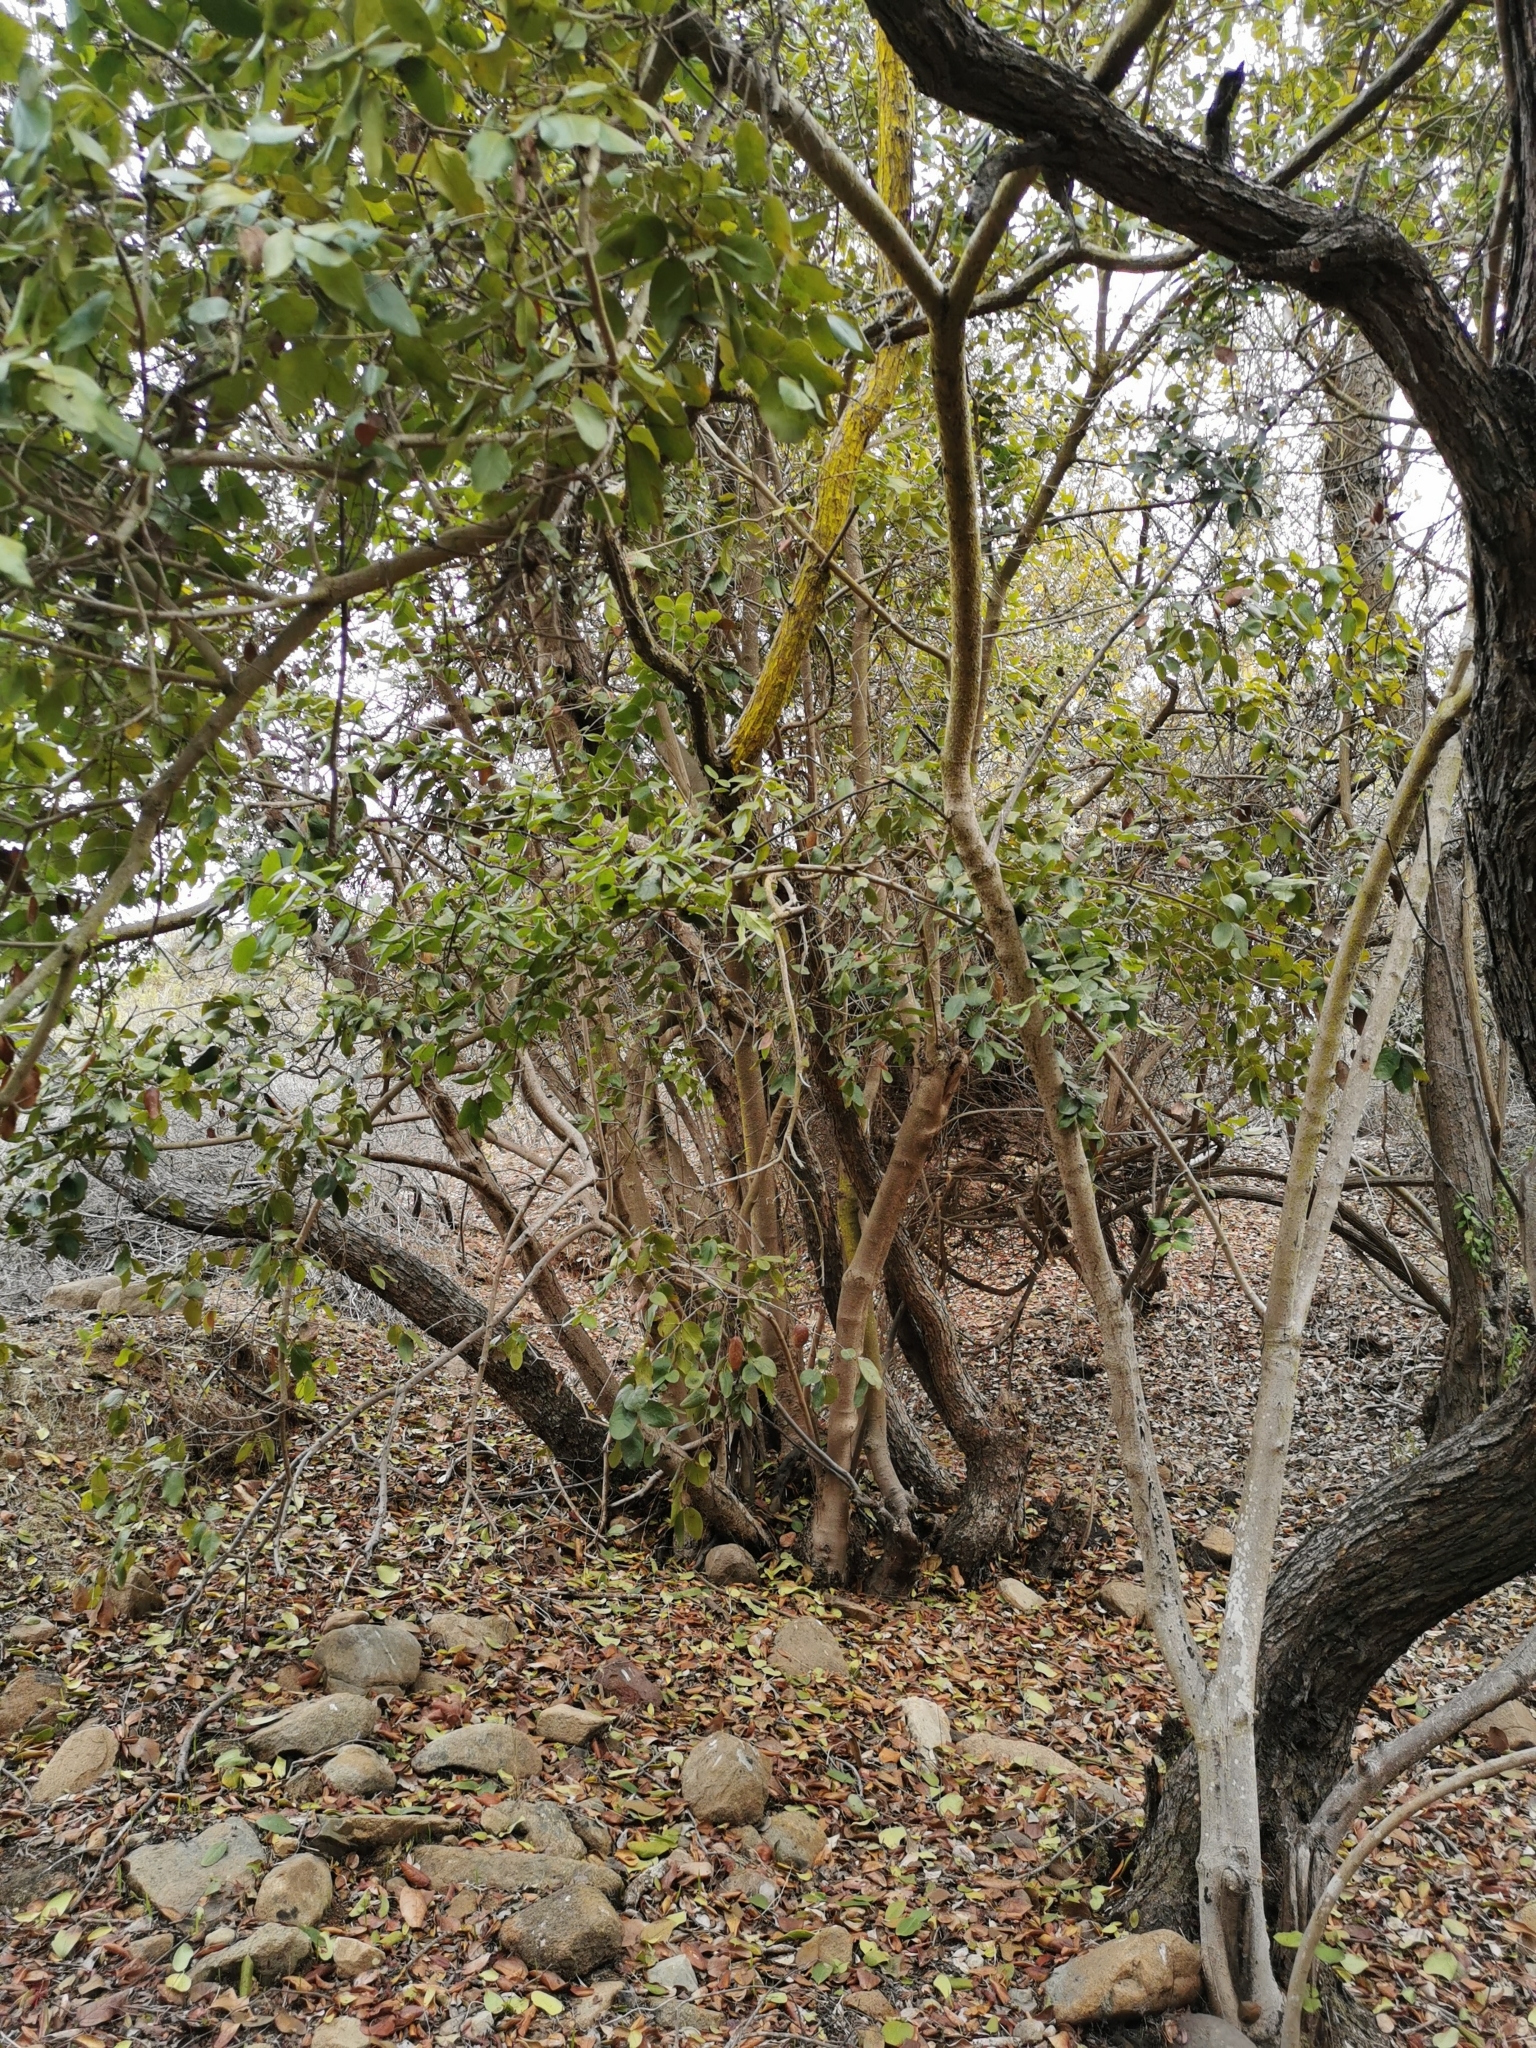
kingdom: Plantae
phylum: Tracheophyta
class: Magnoliopsida
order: Laurales
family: Monimiaceae
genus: Peumus
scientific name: Peumus boldus
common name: Boldo
